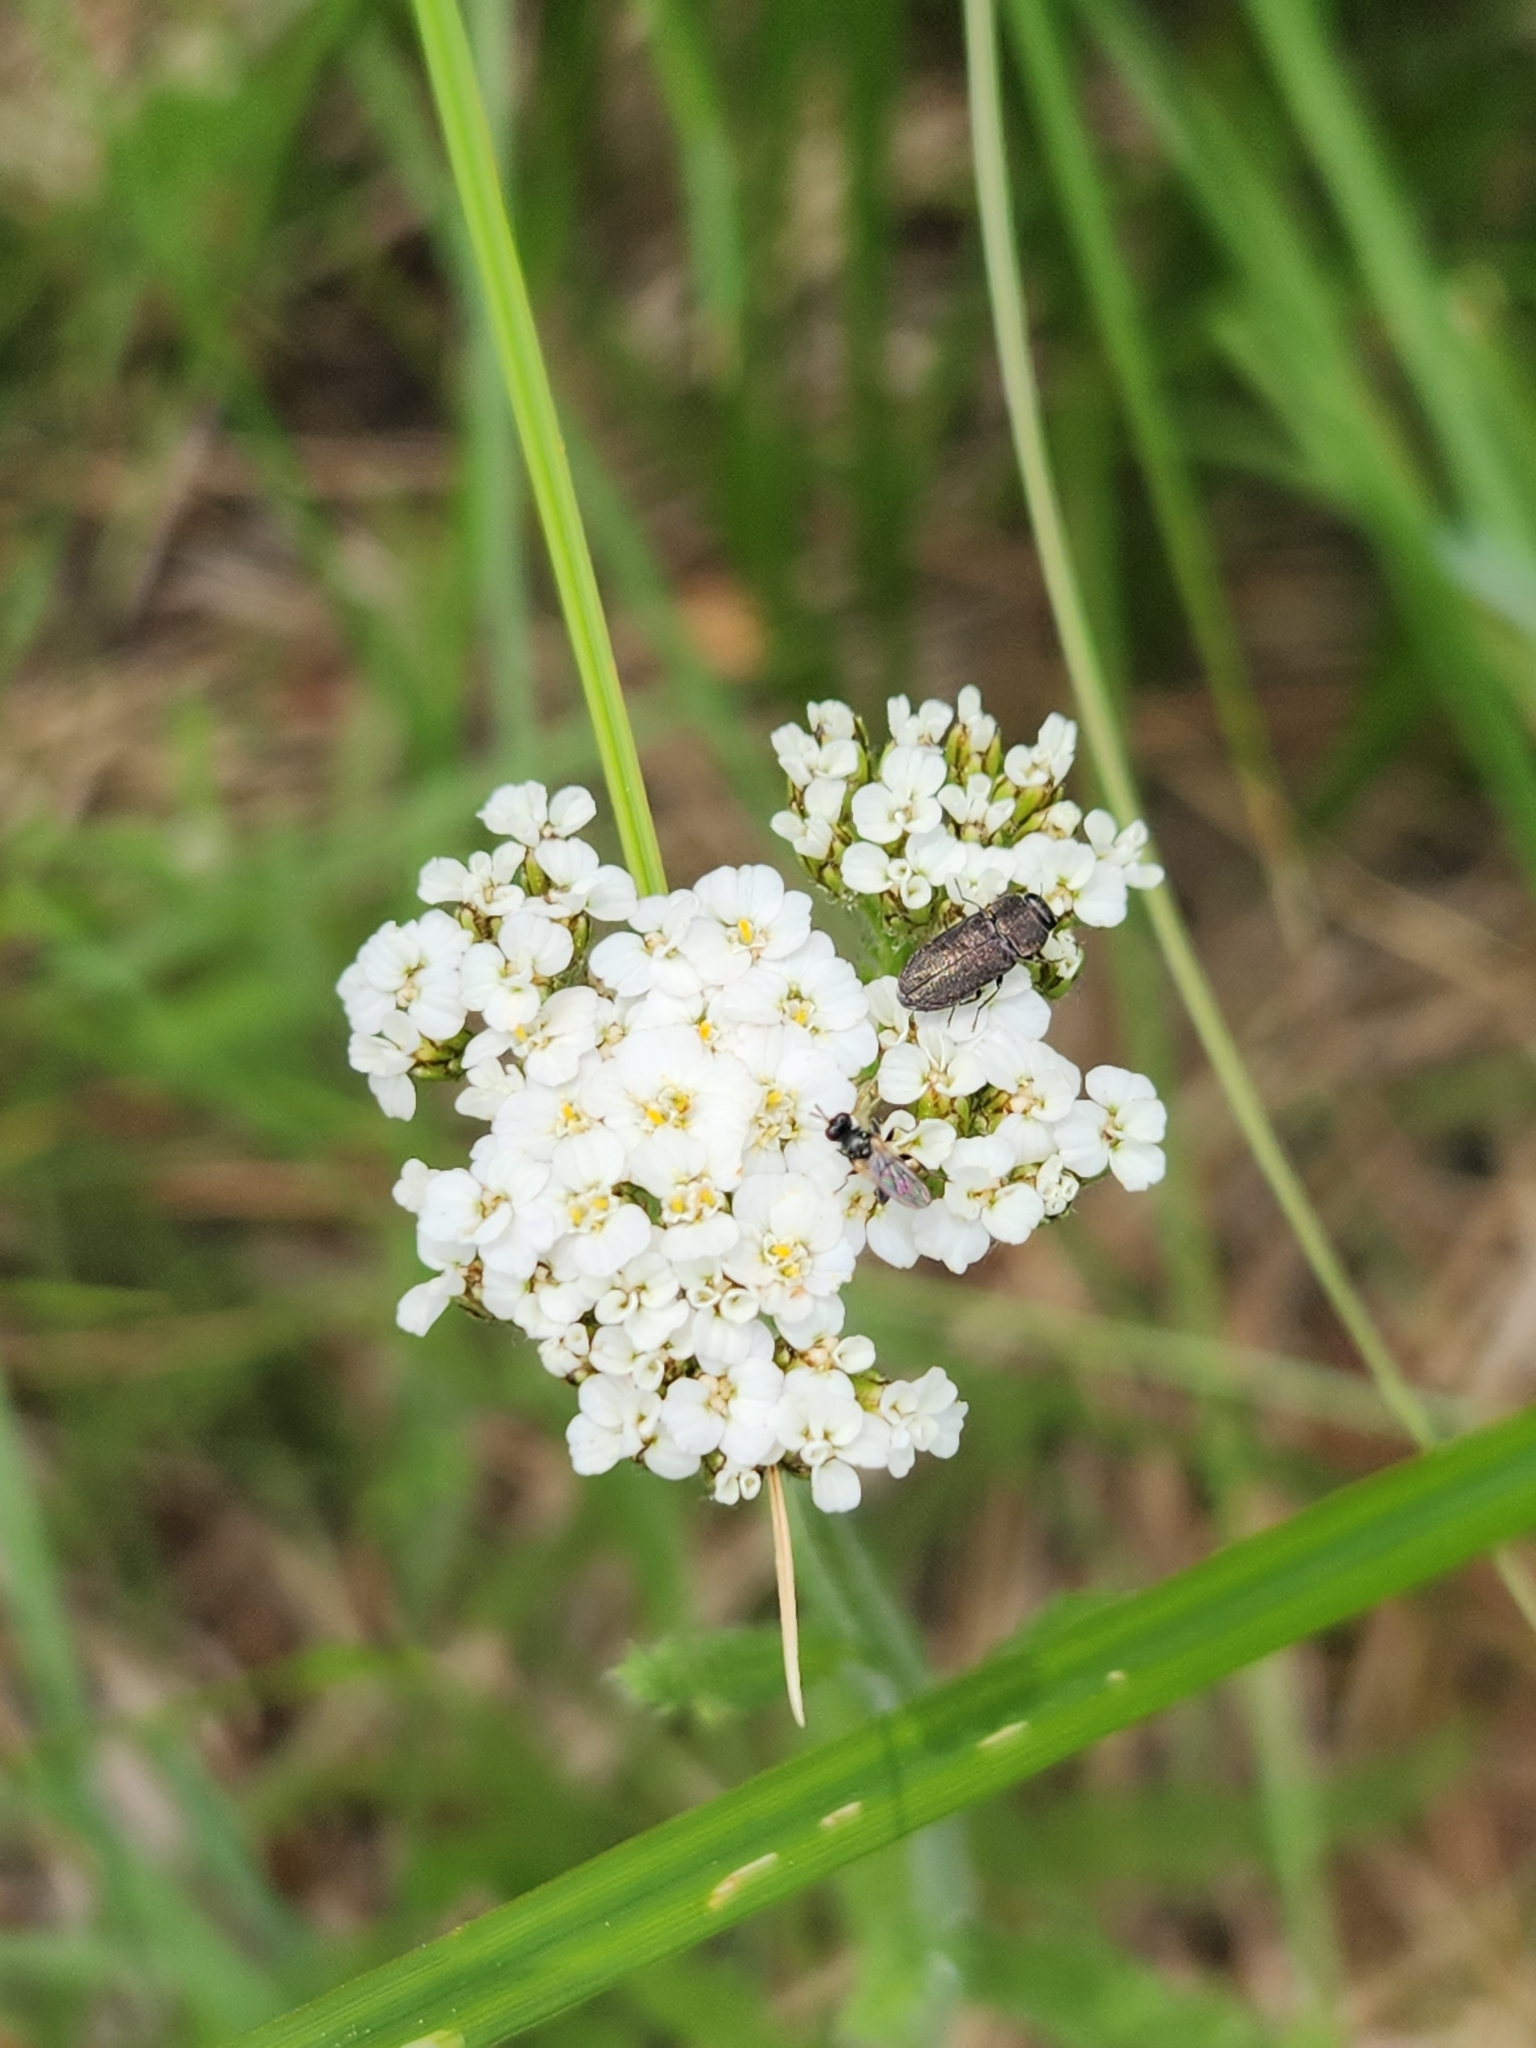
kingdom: Plantae
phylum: Tracheophyta
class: Magnoliopsida
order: Asterales
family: Asteraceae
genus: Achillea
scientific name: Achillea millefolium
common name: Yarrow
